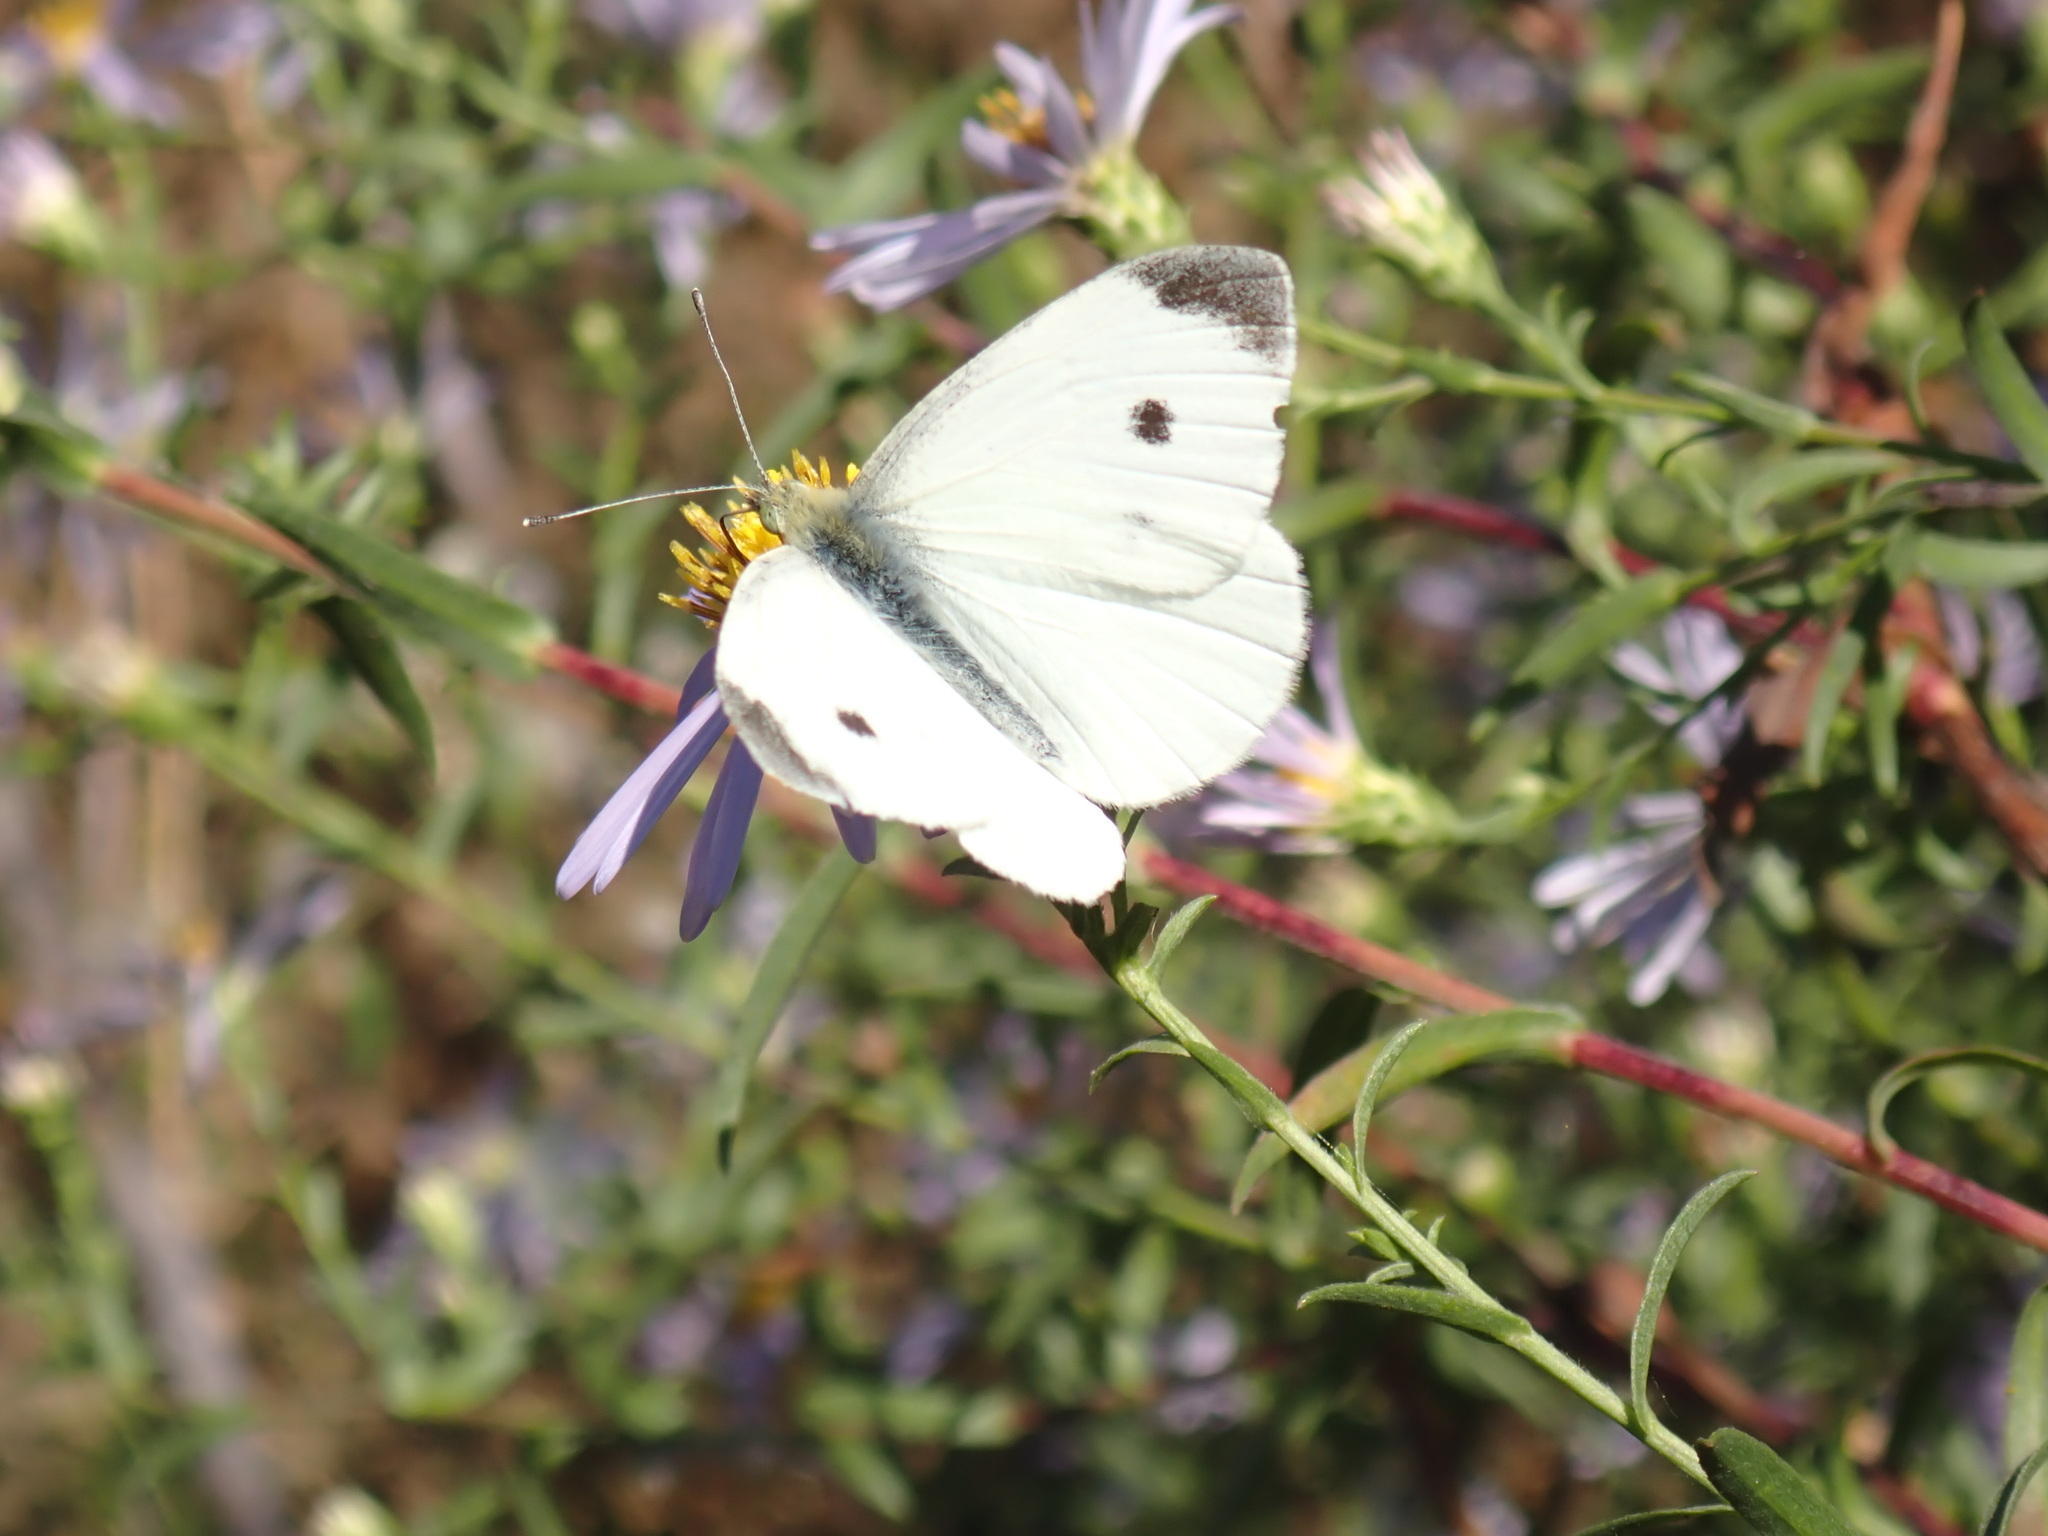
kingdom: Animalia
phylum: Arthropoda
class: Insecta
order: Lepidoptera
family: Pieridae
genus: Pieris
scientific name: Pieris rapae
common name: Small white
